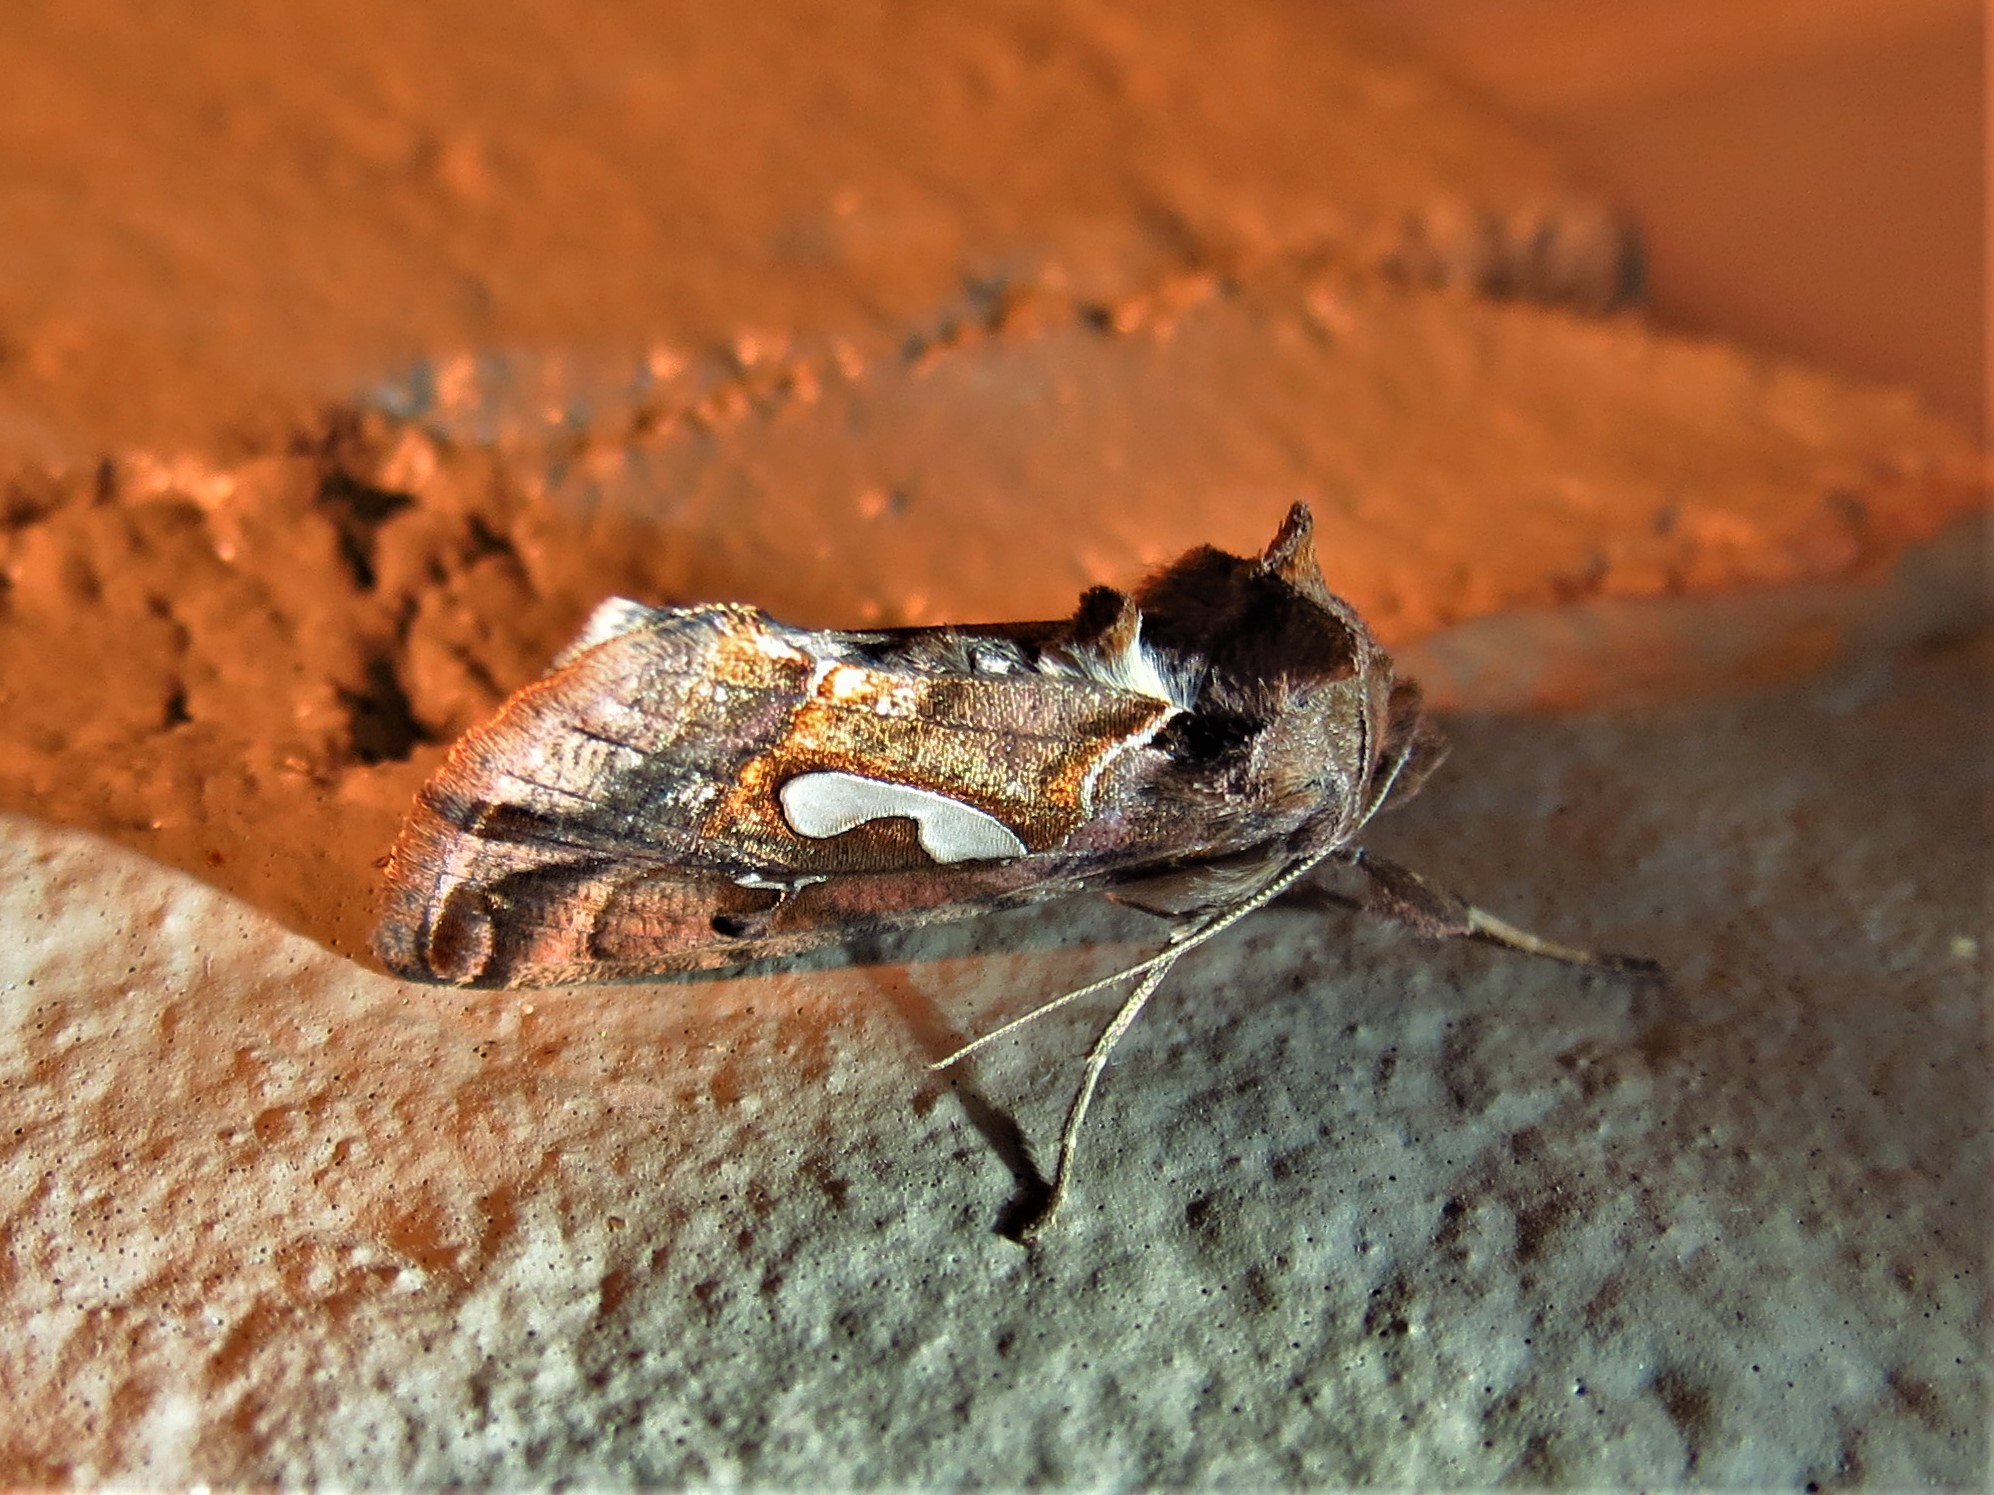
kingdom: Animalia
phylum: Arthropoda
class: Insecta
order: Lepidoptera
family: Noctuidae
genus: Megalographa
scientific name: Megalographa biloba
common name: Cutworm
